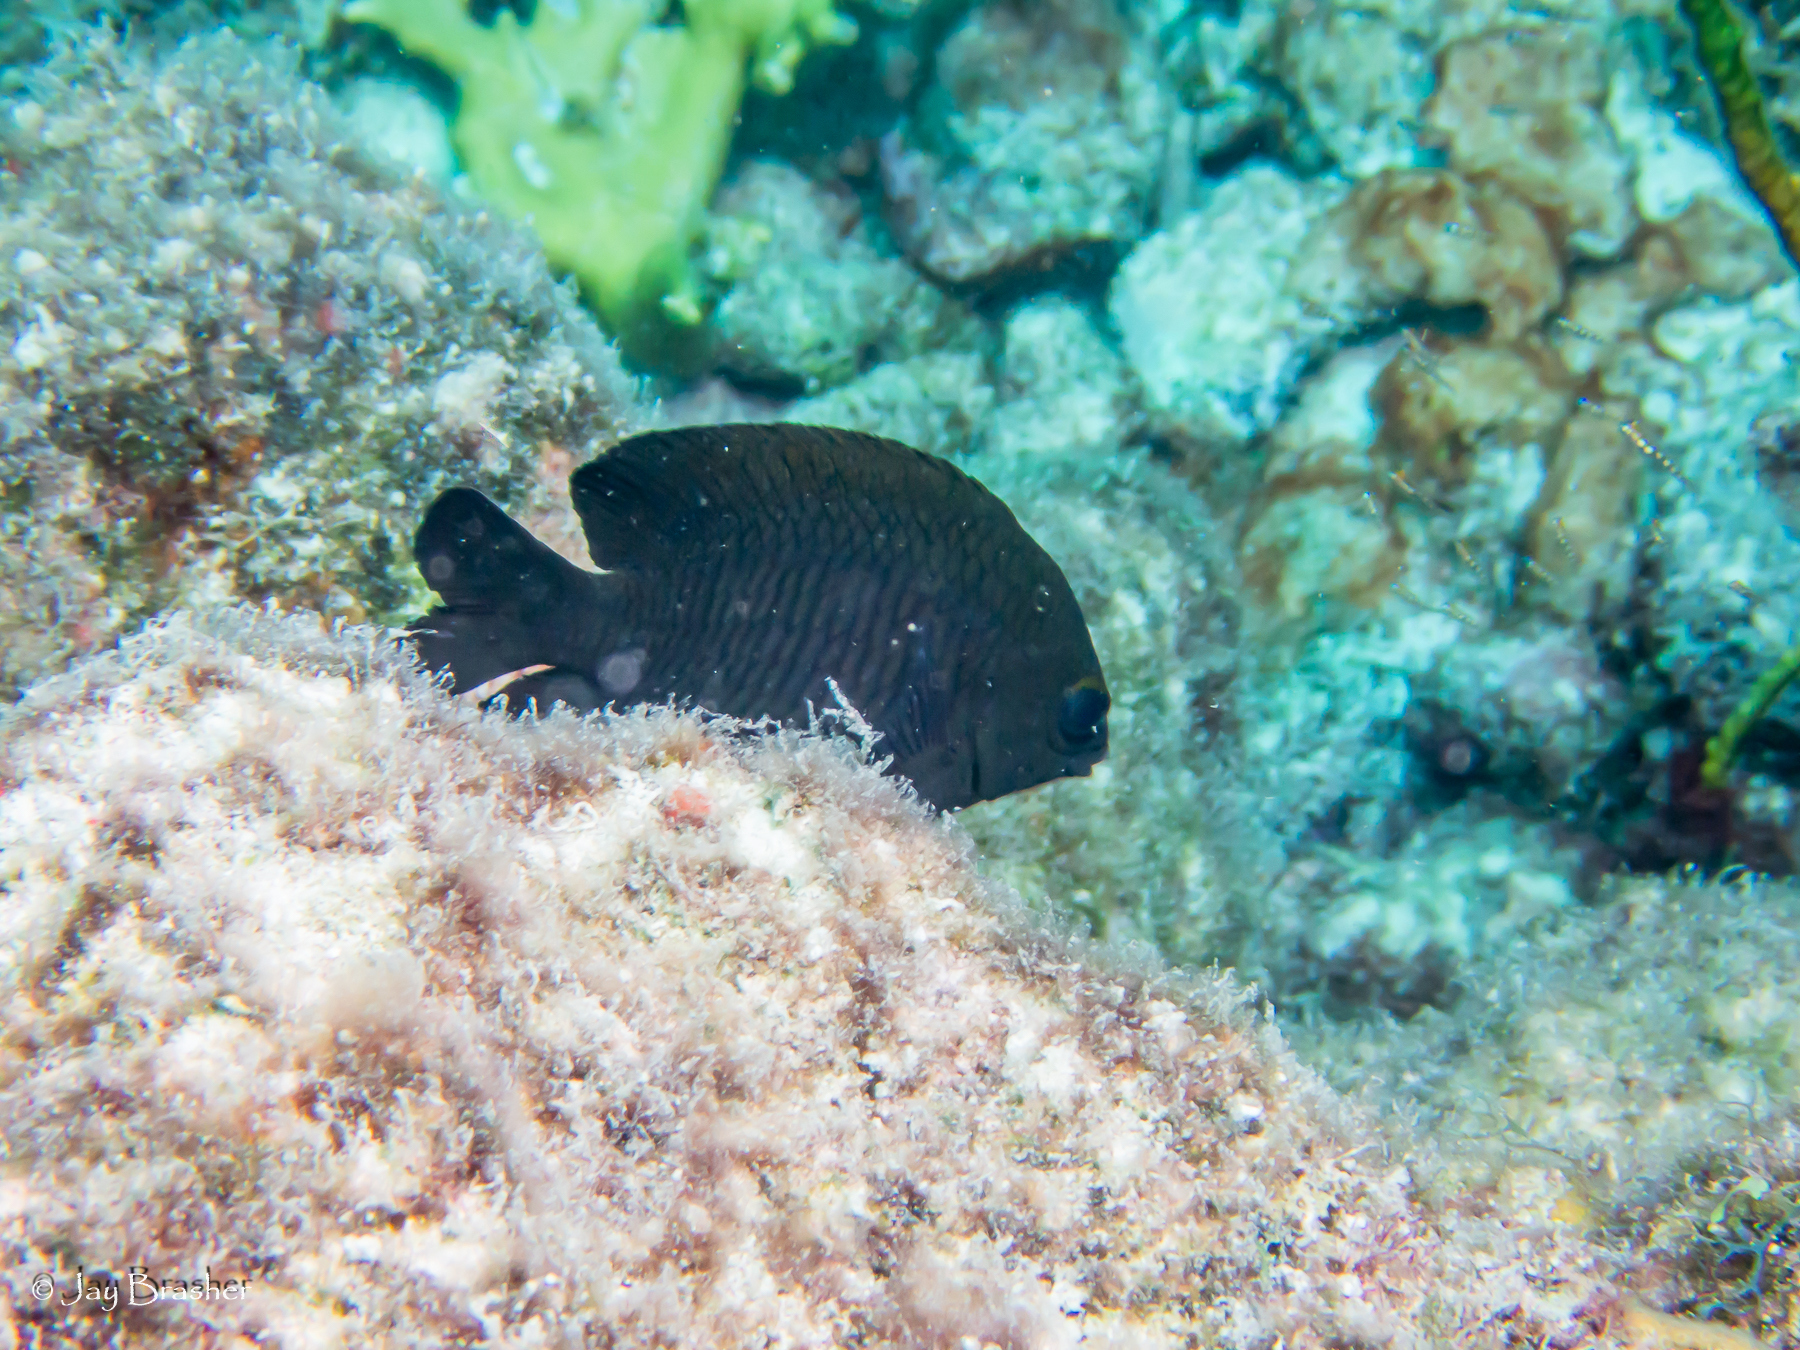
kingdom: Animalia
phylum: Chordata
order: Perciformes
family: Pomacentridae
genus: Stegastes
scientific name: Stegastes diencaeus
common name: Longfin damselfish
